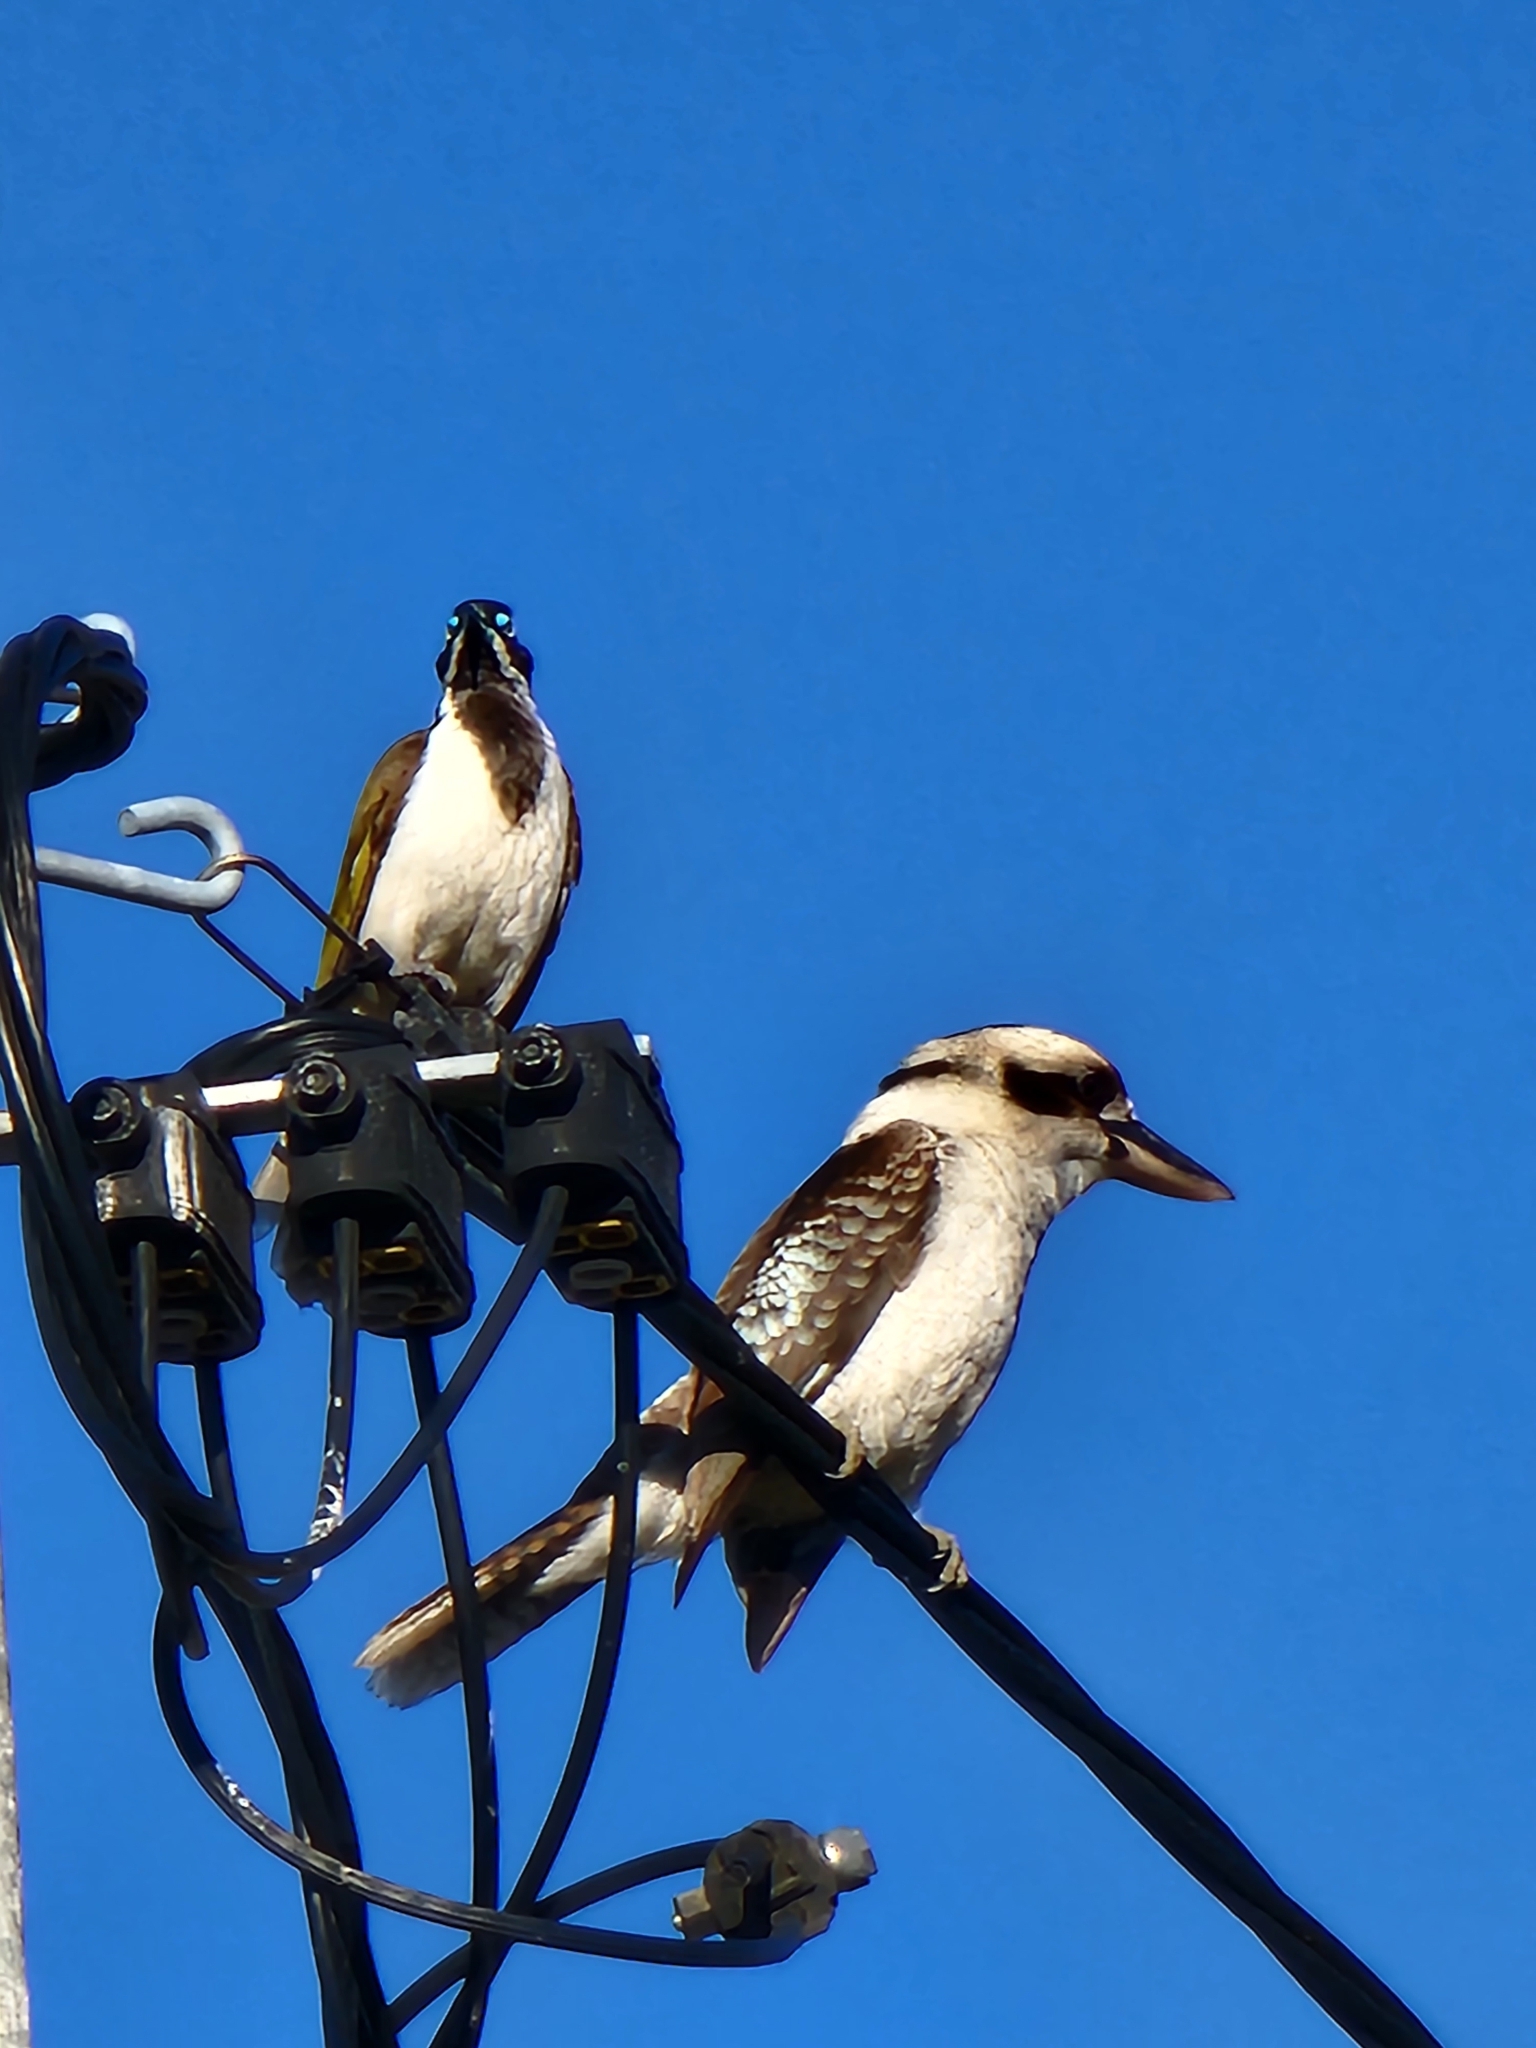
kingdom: Animalia
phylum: Chordata
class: Aves
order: Coraciiformes
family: Alcedinidae
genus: Dacelo
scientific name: Dacelo novaeguineae
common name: Laughing kookaburra
